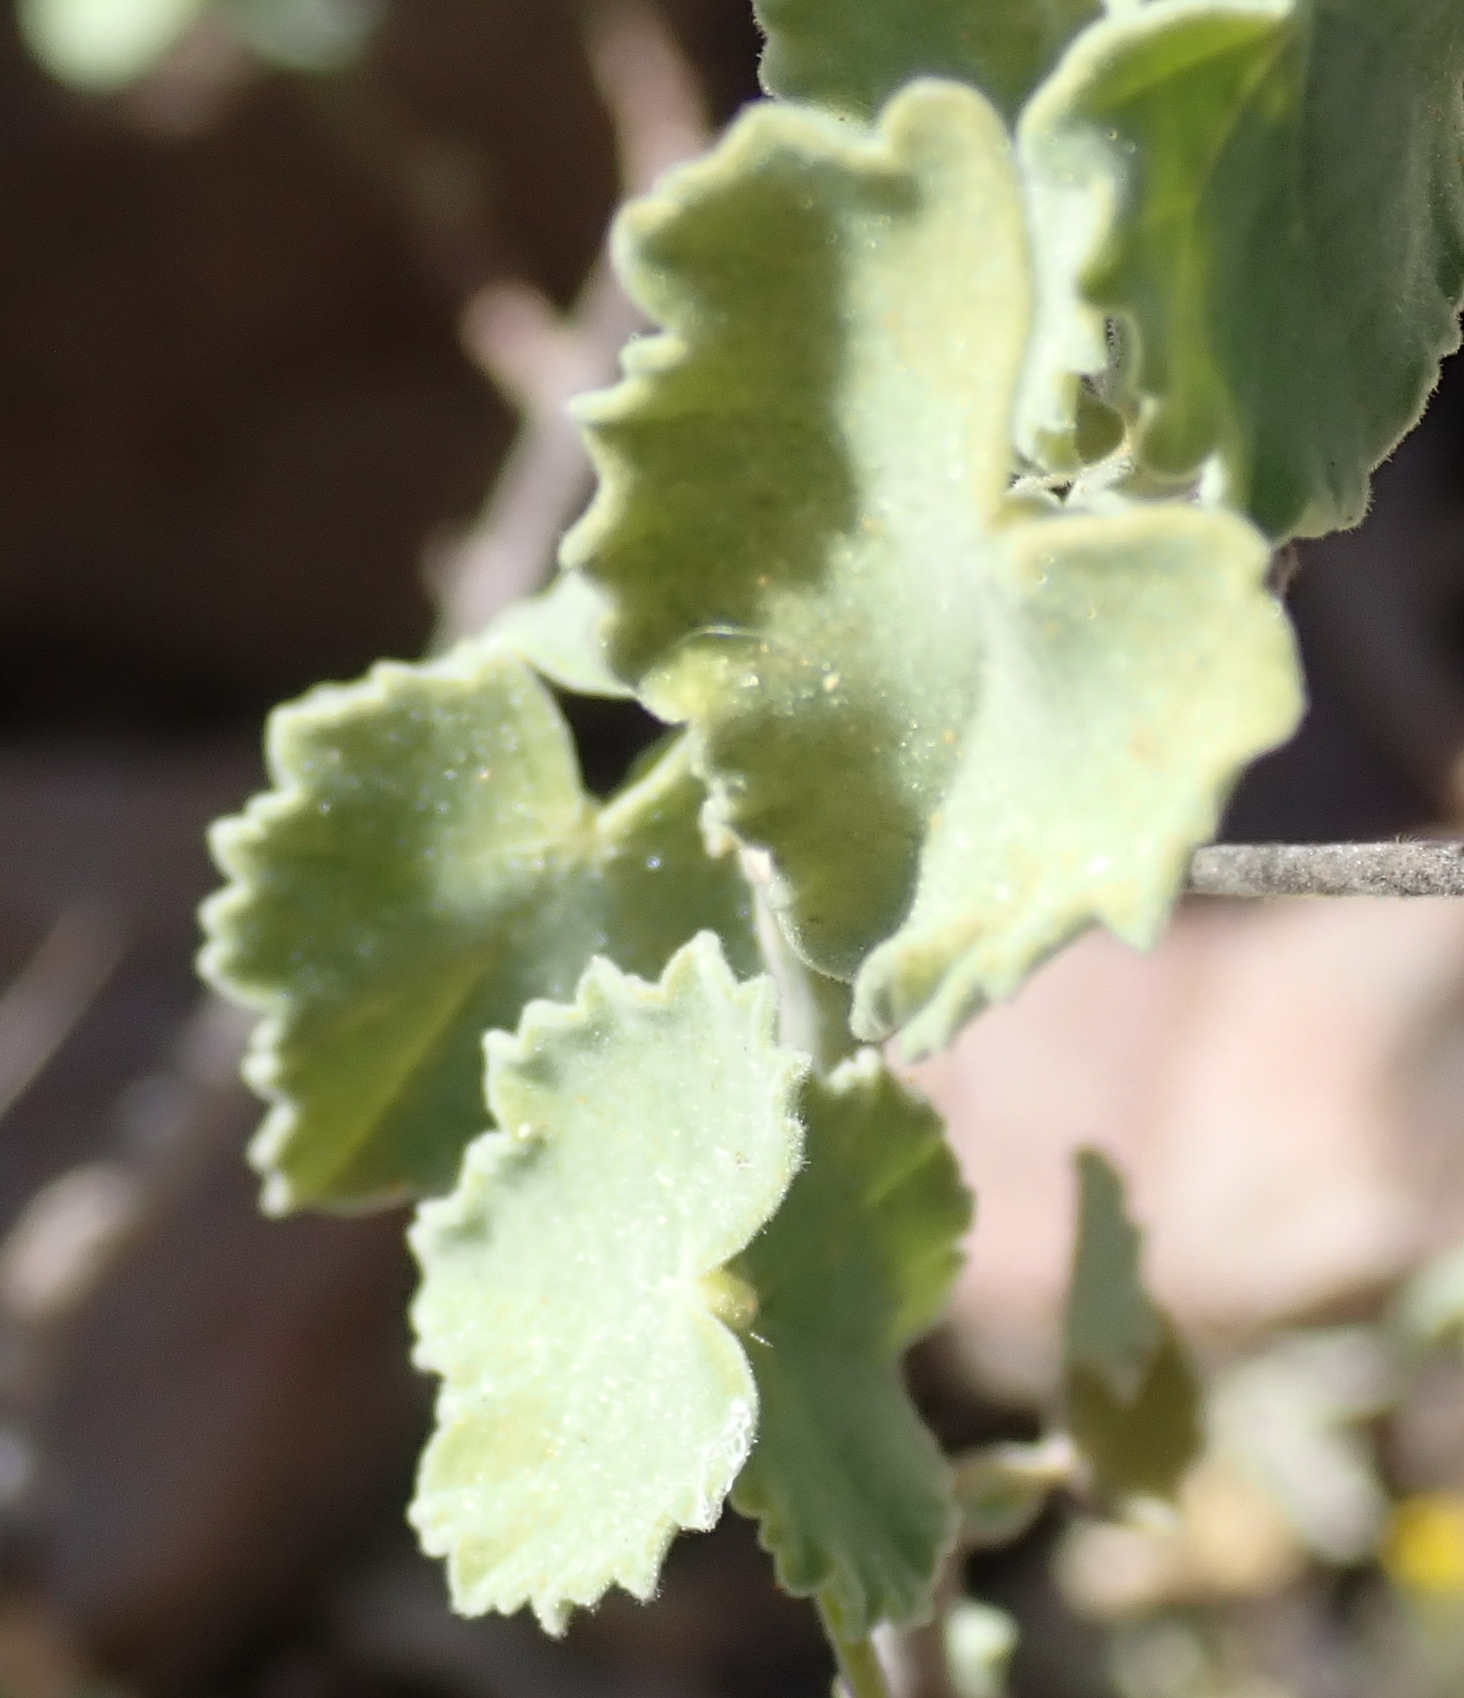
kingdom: Plantae
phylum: Tracheophyta
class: Magnoliopsida
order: Malvales
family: Malvaceae
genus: Abutilon
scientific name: Abutilon sonneratianum
